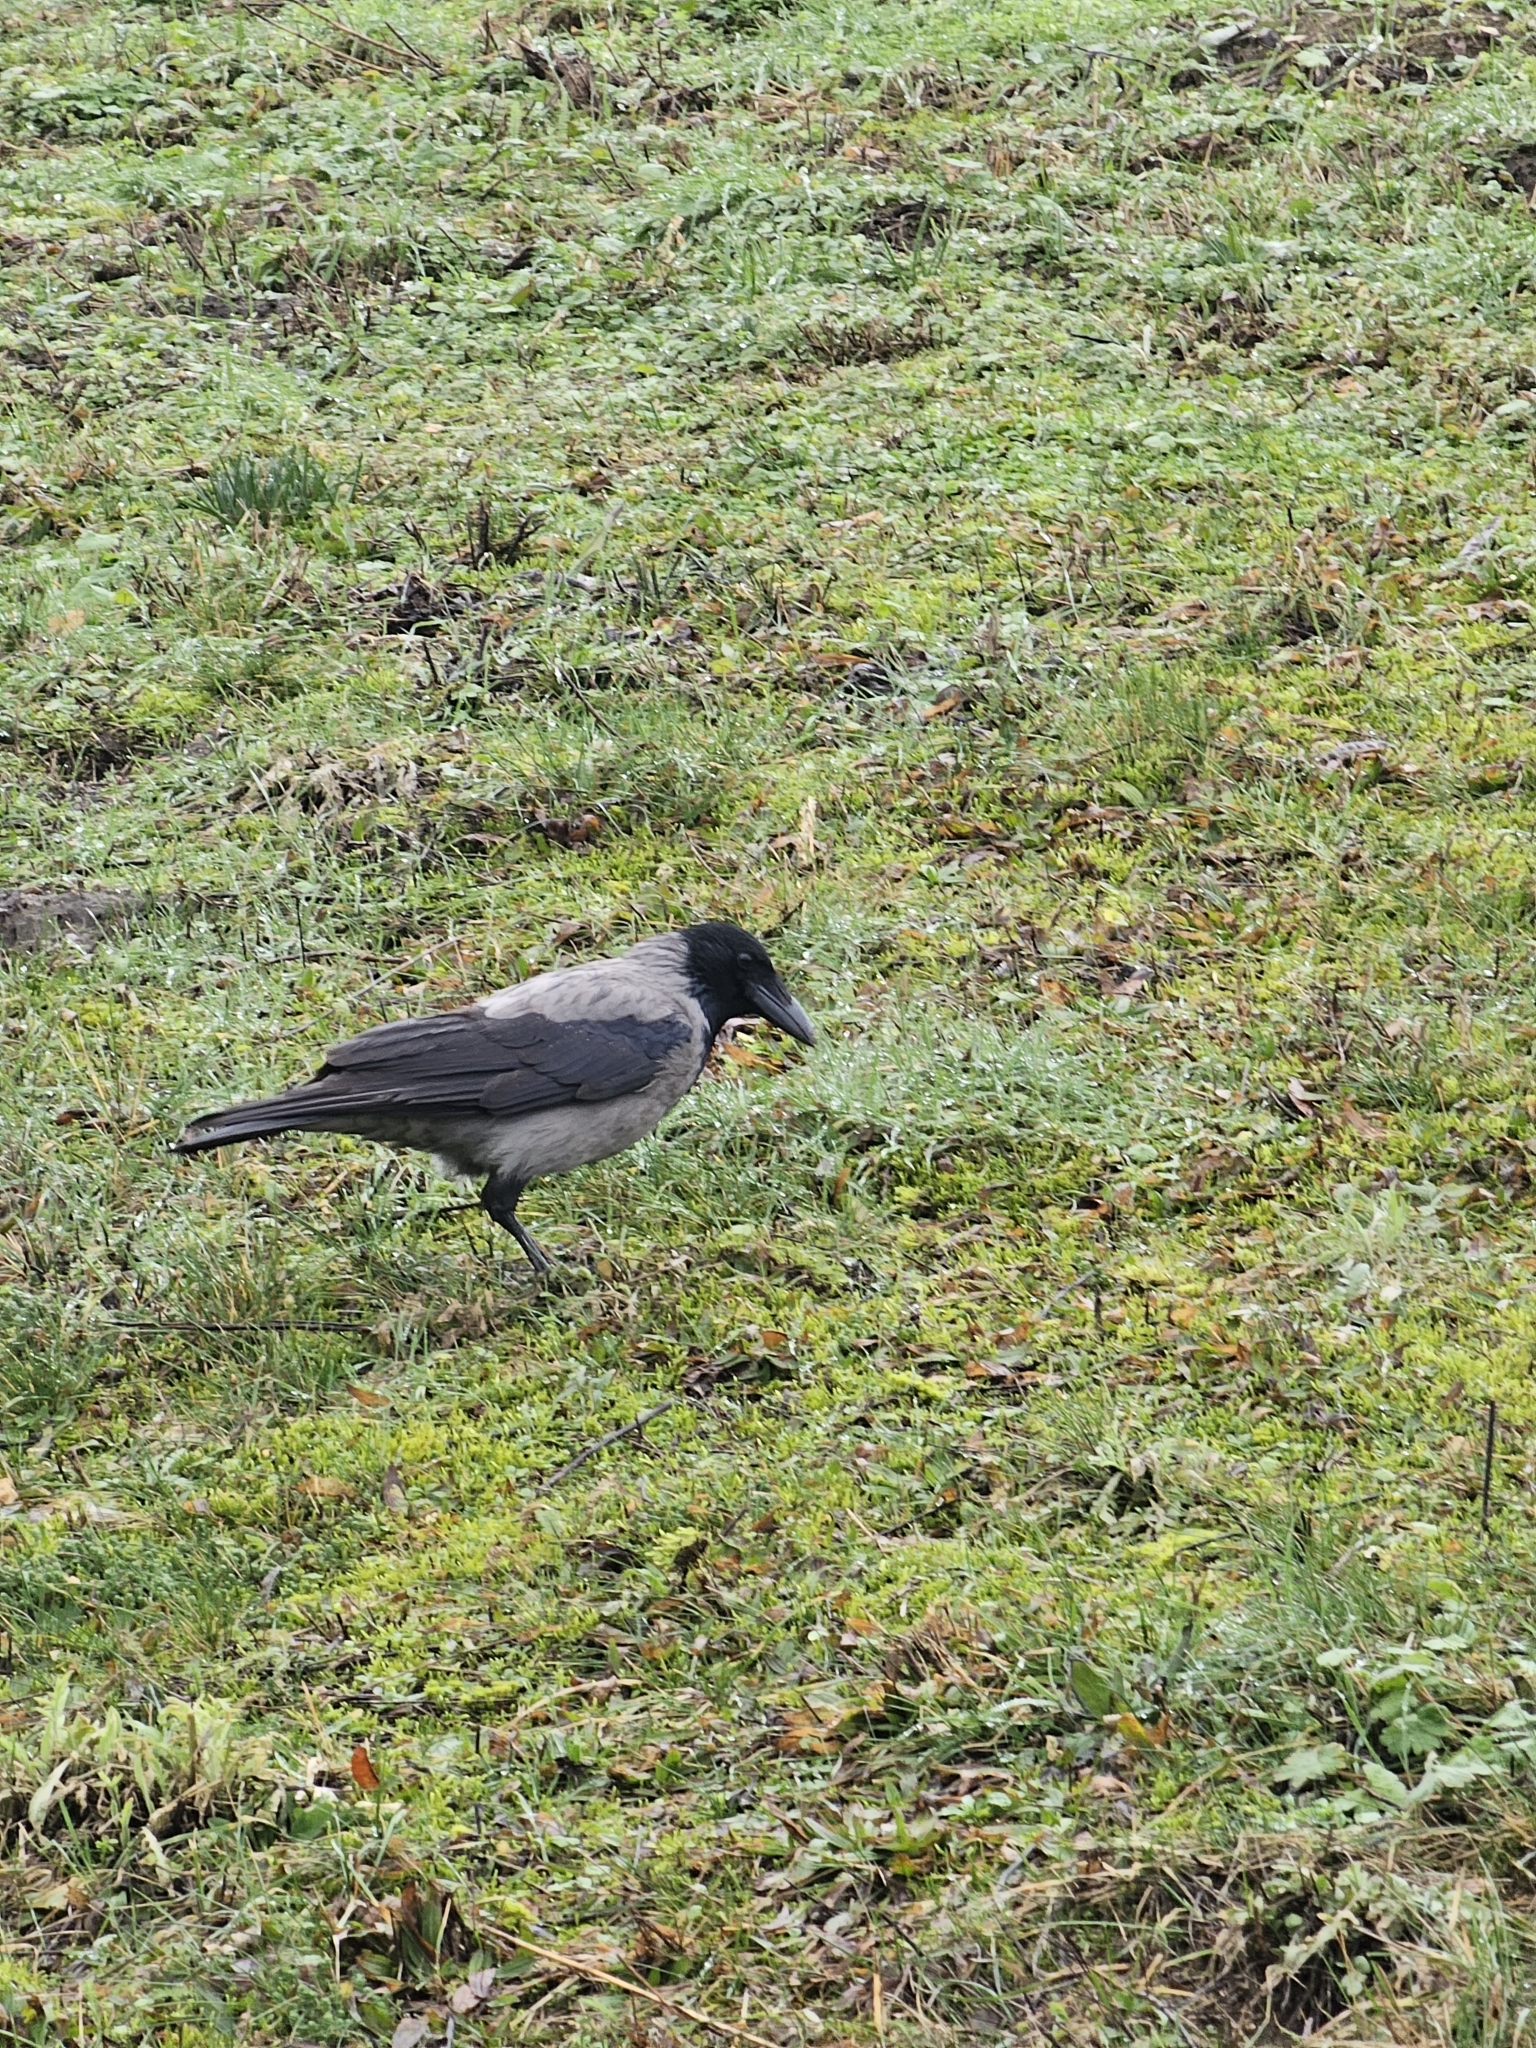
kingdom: Animalia
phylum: Chordata
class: Aves
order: Passeriformes
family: Corvidae
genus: Corvus
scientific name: Corvus cornix
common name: Hooded crow
